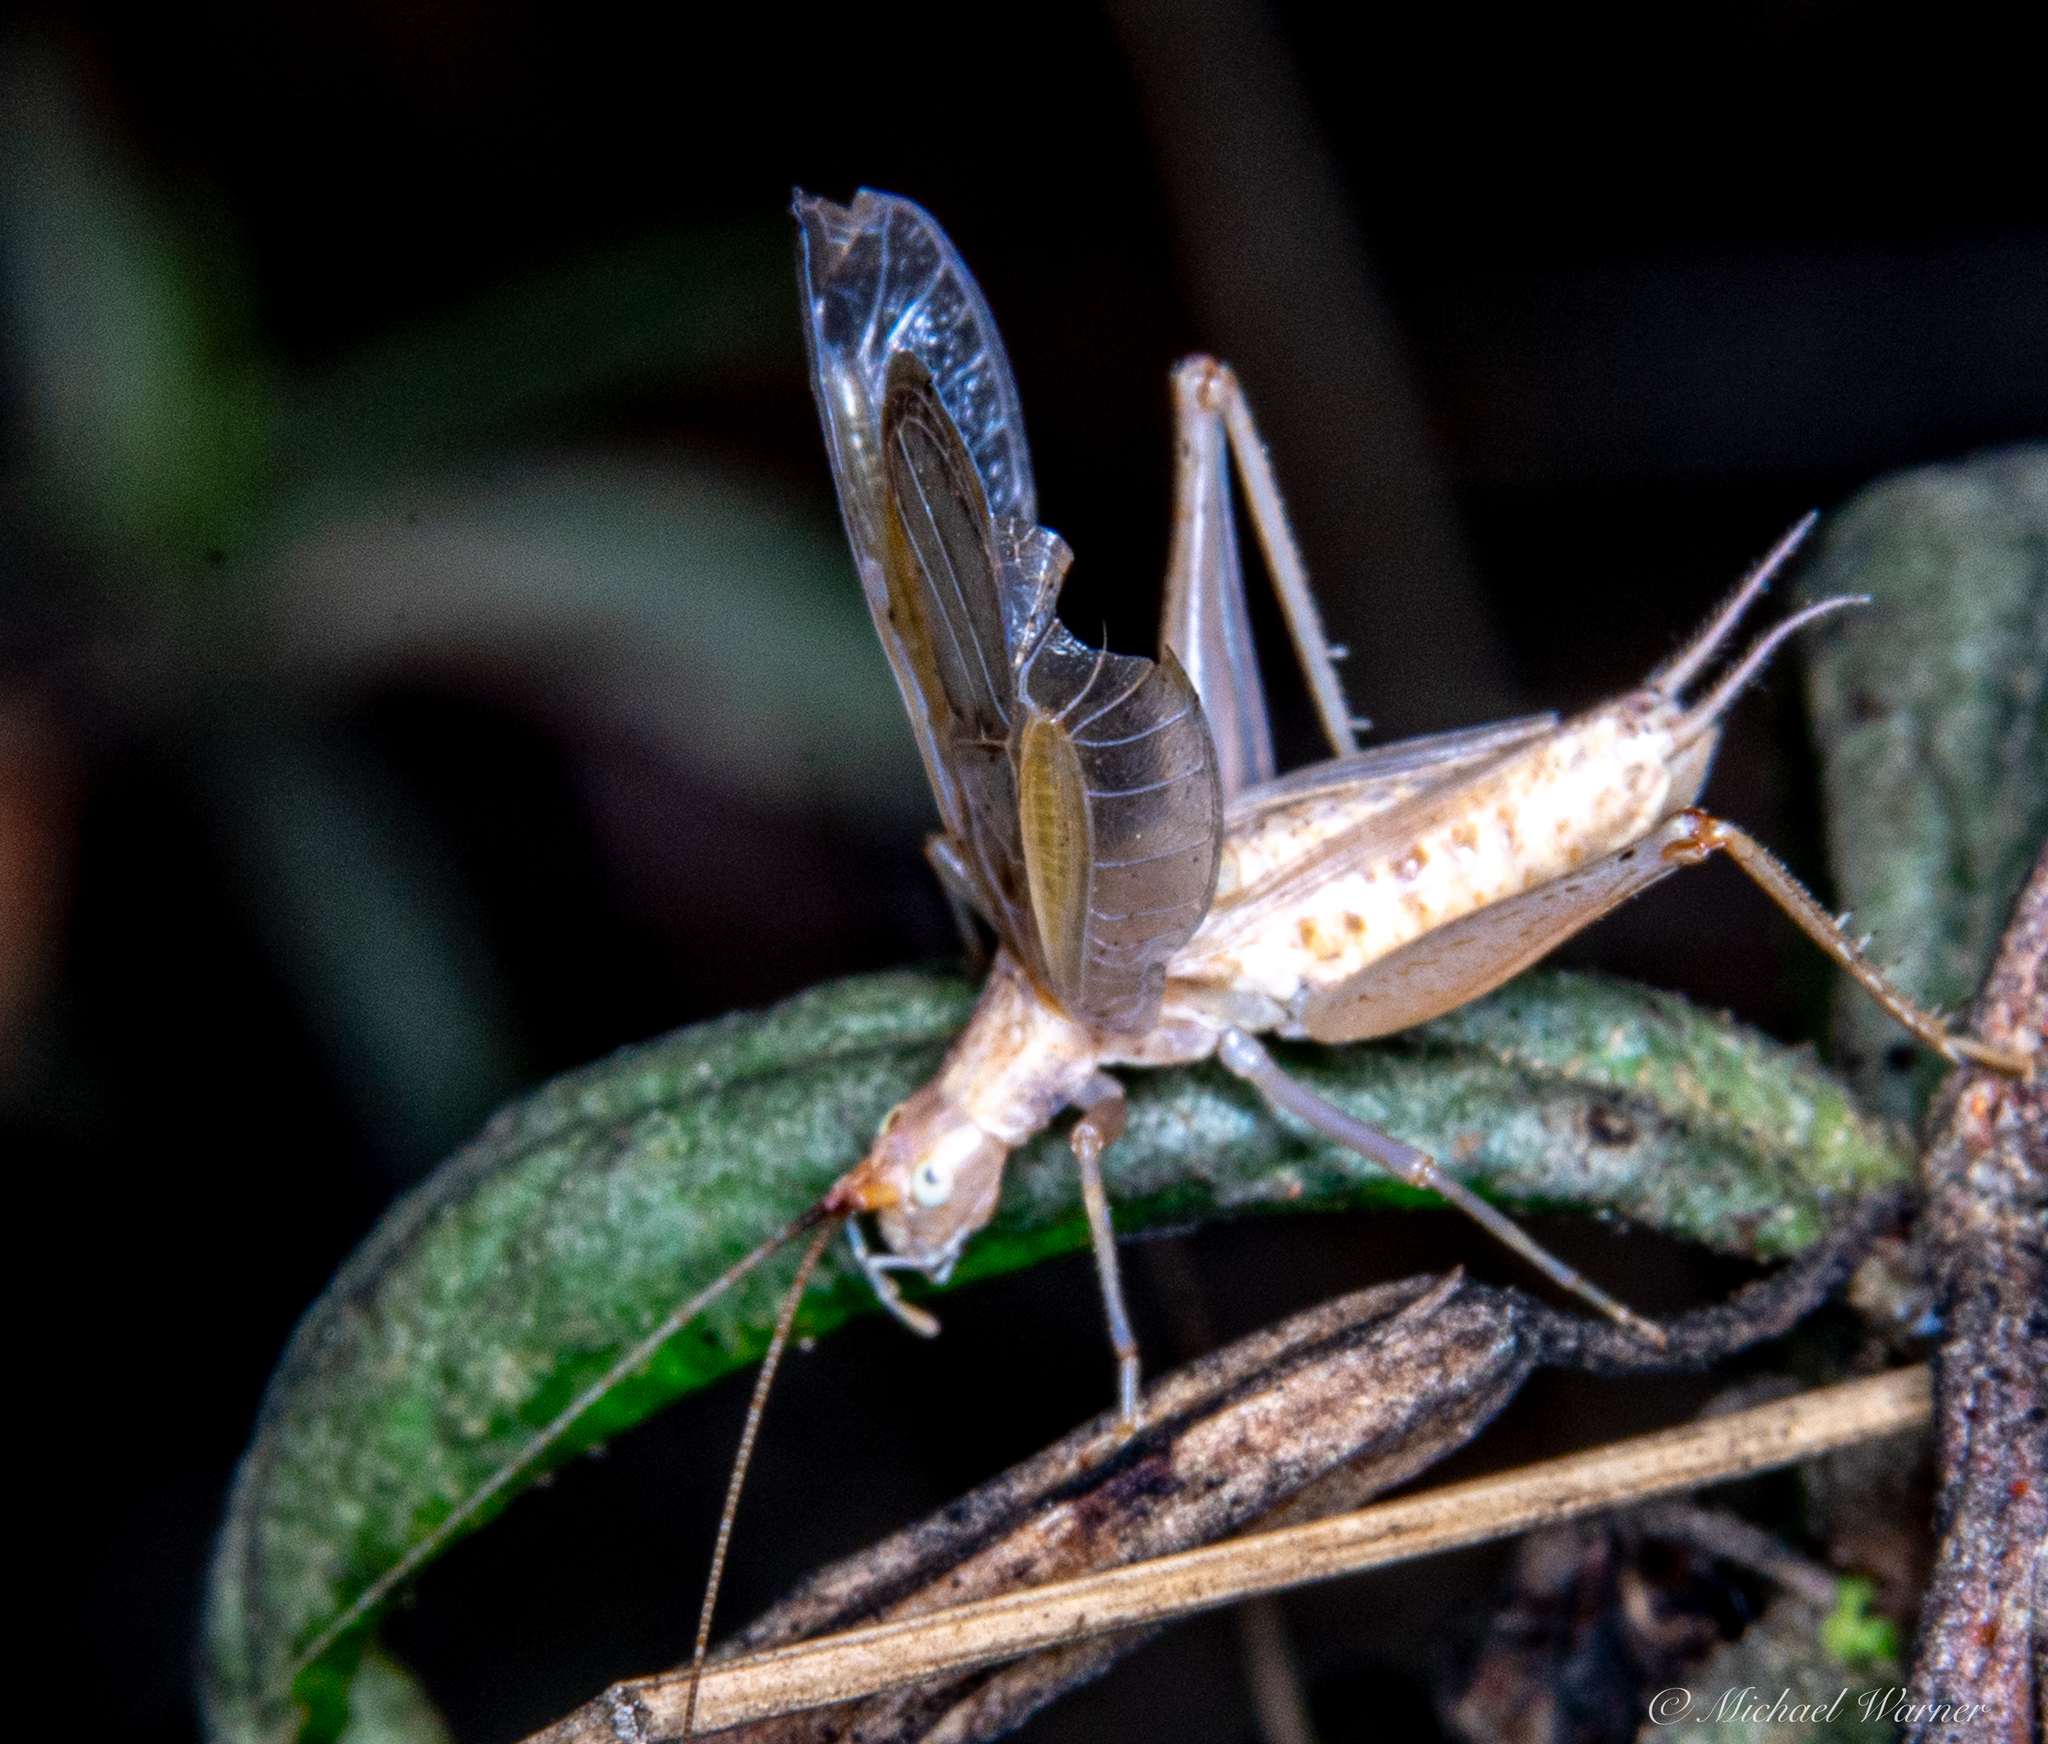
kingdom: Animalia
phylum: Arthropoda
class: Insecta
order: Orthoptera
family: Gryllidae
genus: Oecanthus
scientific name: Oecanthus californicus
